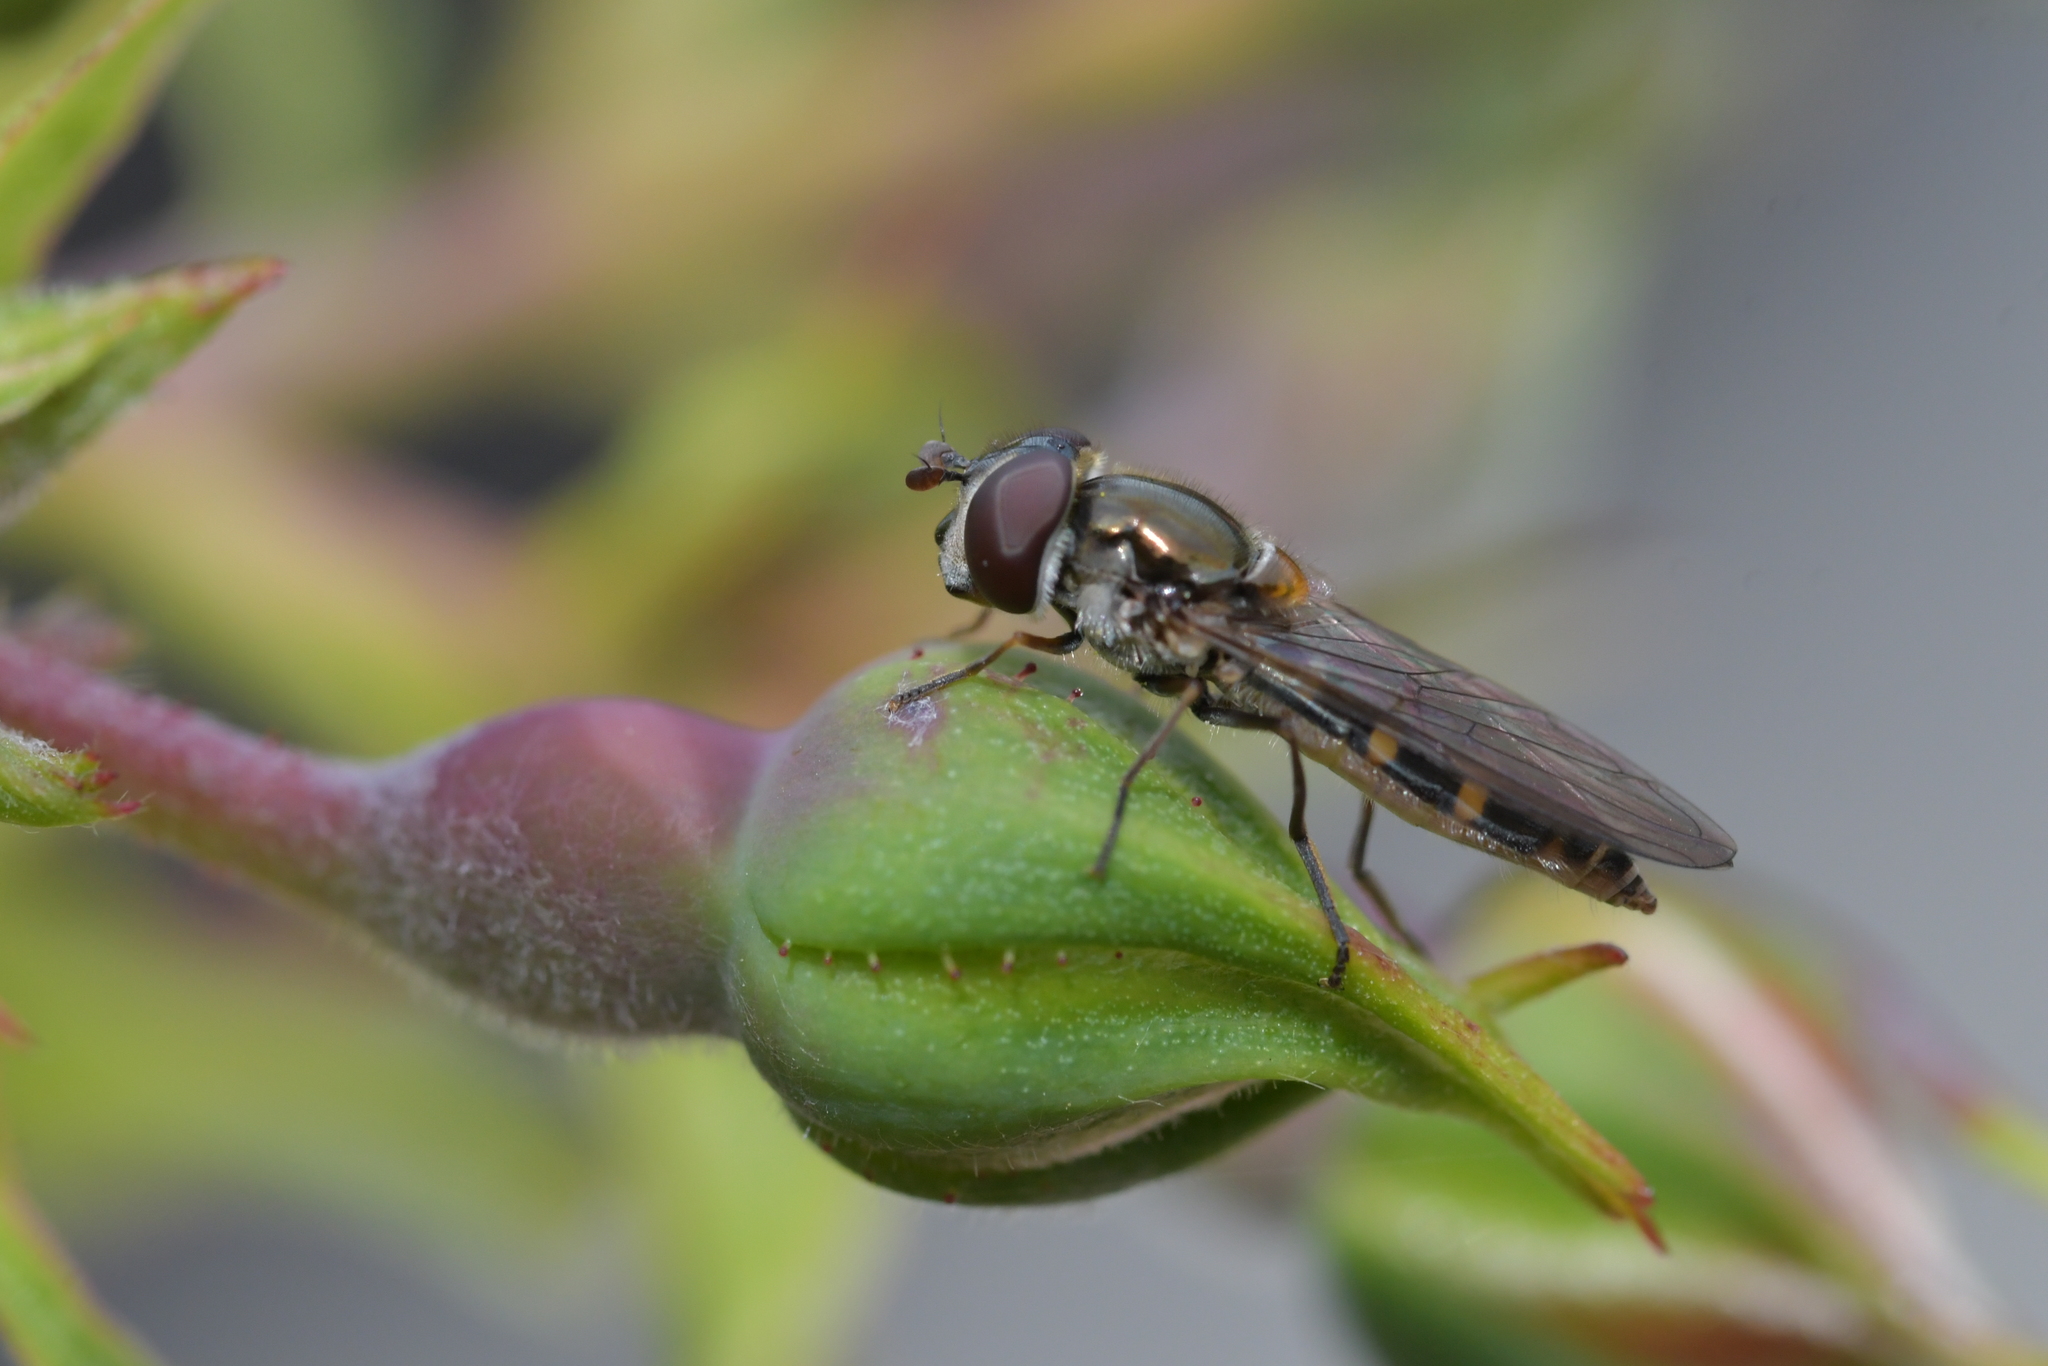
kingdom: Animalia
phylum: Arthropoda
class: Insecta
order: Diptera
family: Syrphidae
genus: Melangyna
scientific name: Melangyna novaezelandiae
